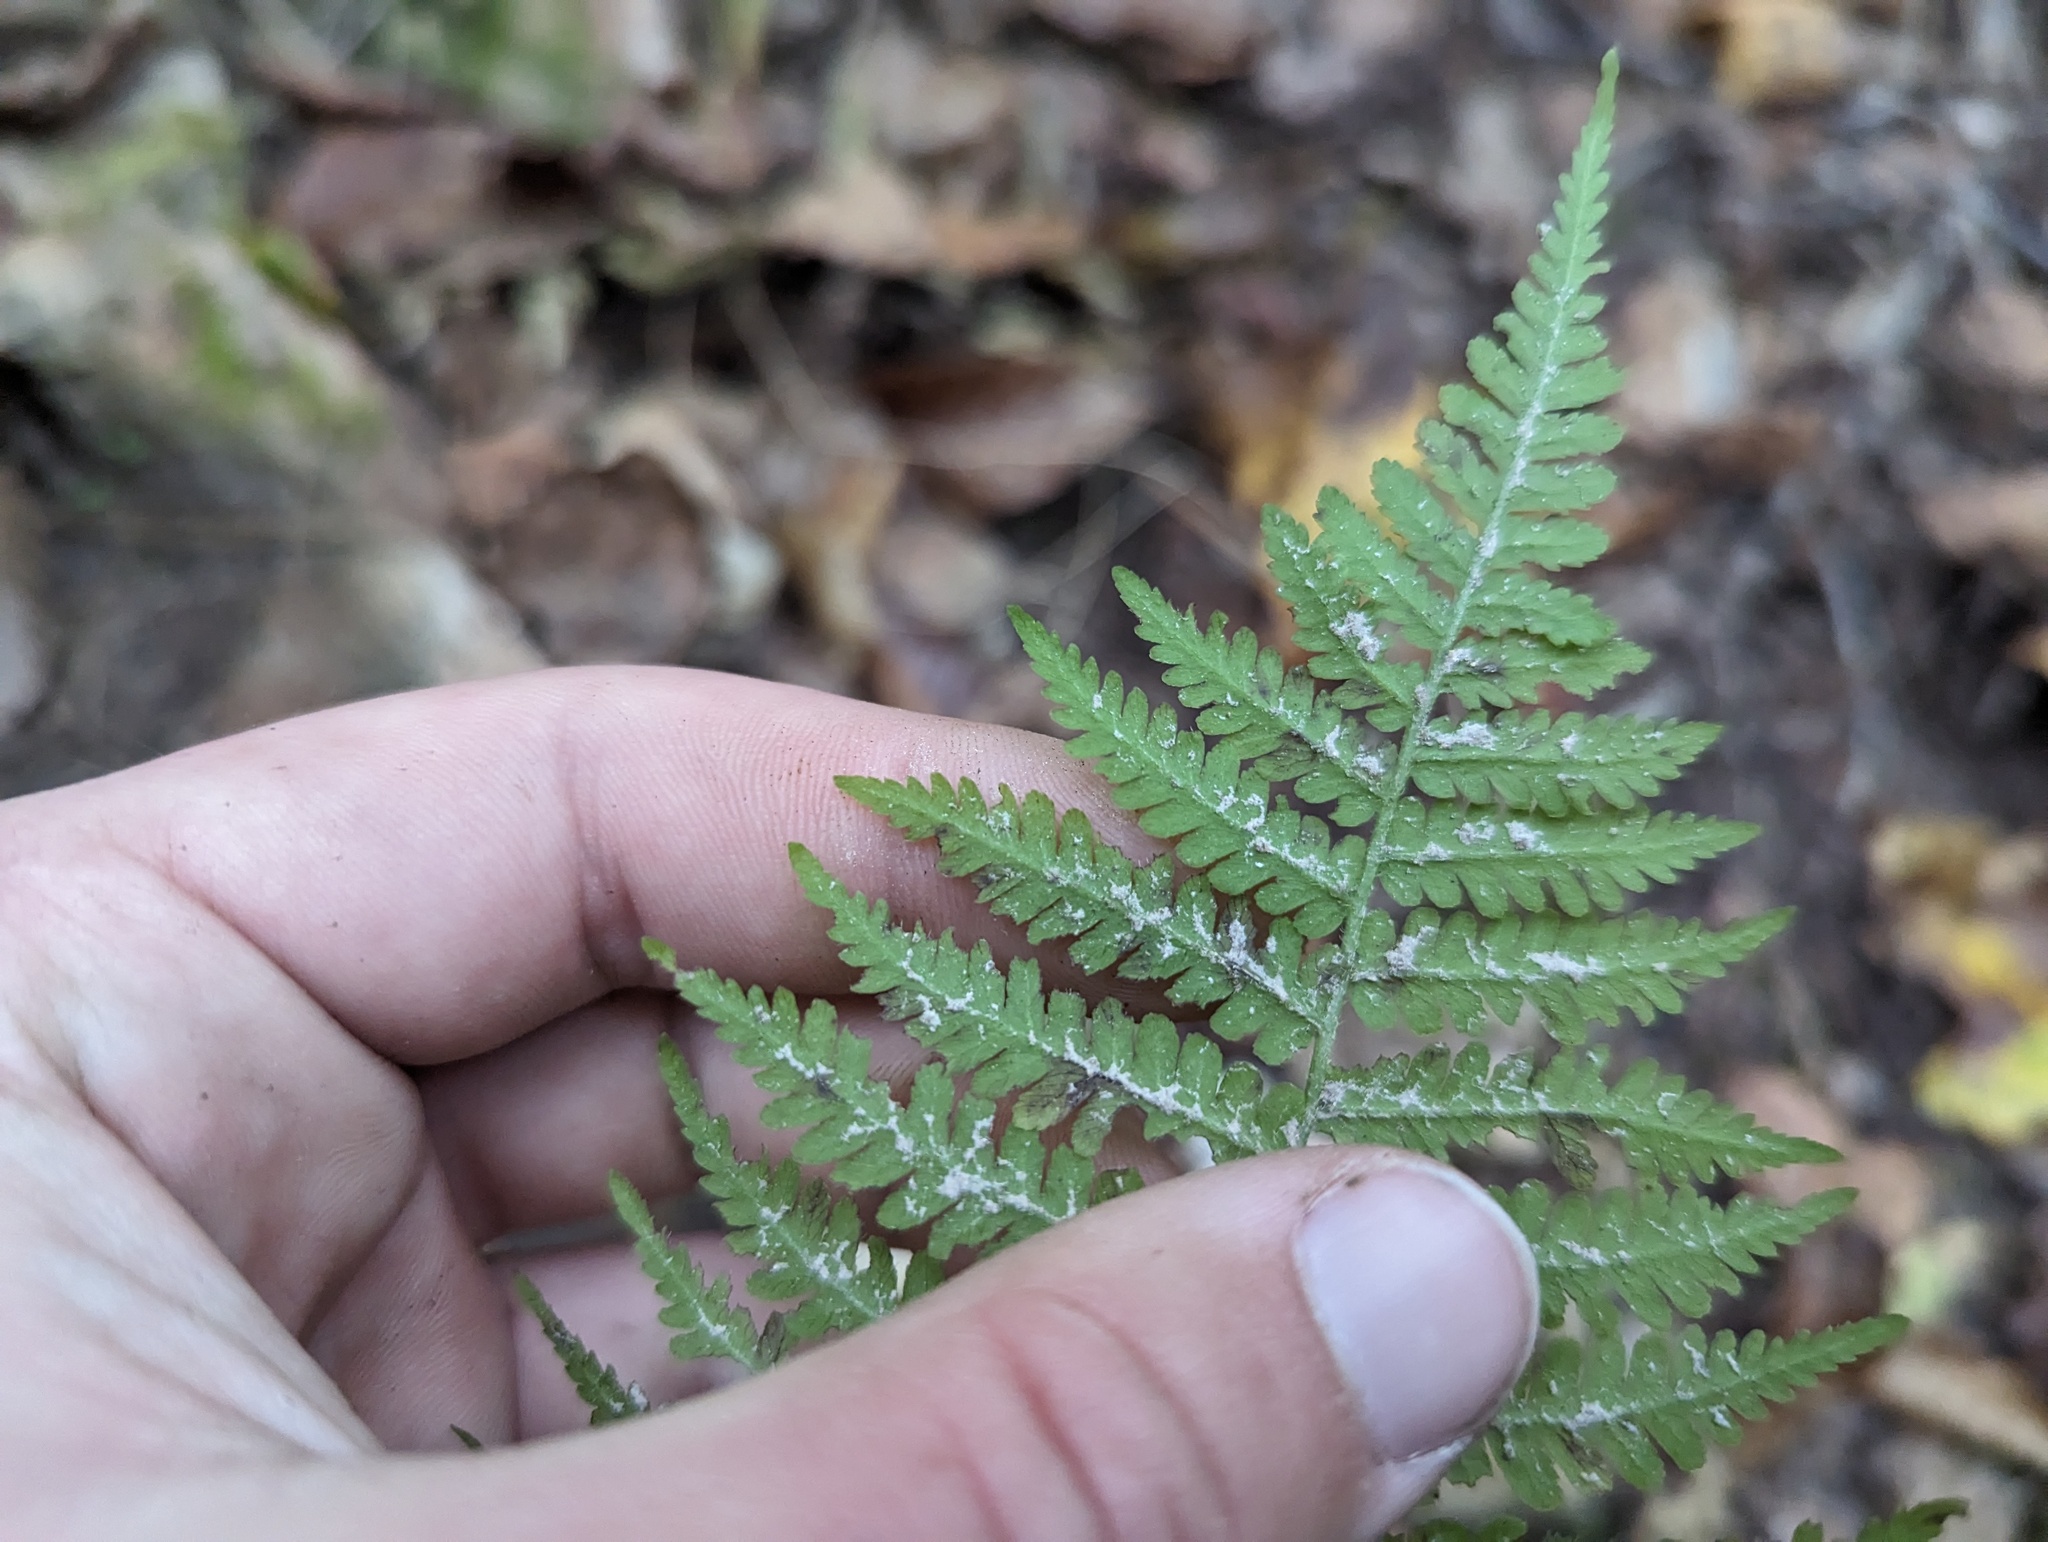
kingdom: Plantae
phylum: Tracheophyta
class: Polypodiopsida
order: Polypodiales
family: Athyriaceae
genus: Deparia
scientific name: Deparia acrostichoides
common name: Silver false spleenwort
